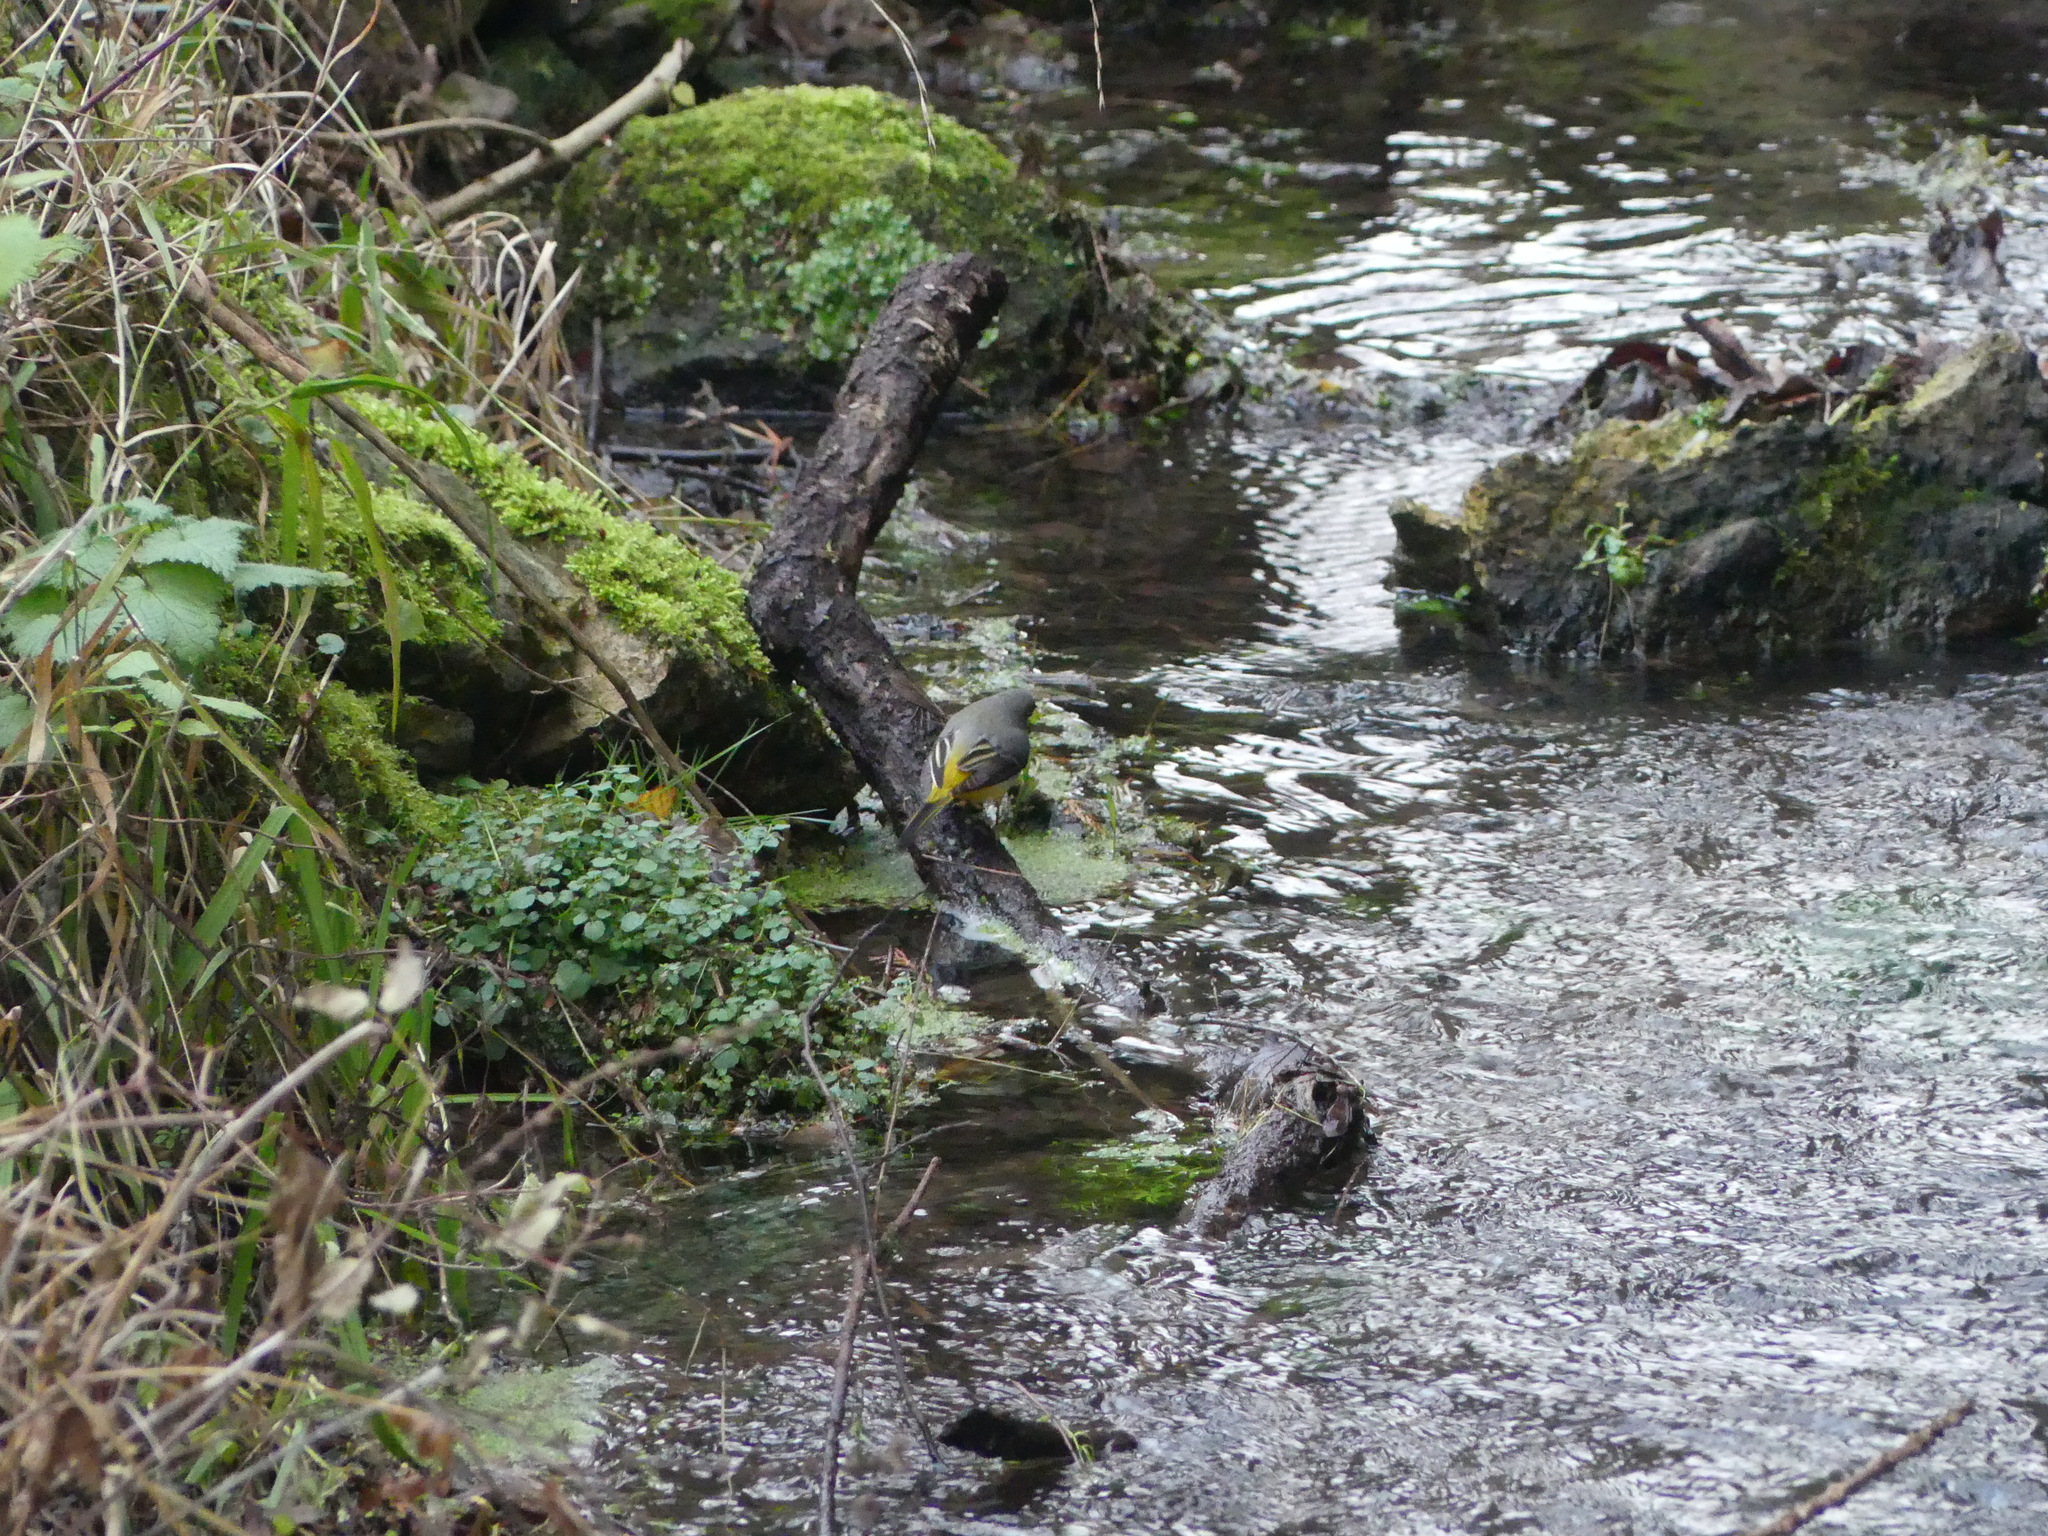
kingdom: Animalia
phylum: Chordata
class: Aves
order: Passeriformes
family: Motacillidae
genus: Motacilla
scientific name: Motacilla cinerea
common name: Grey wagtail
